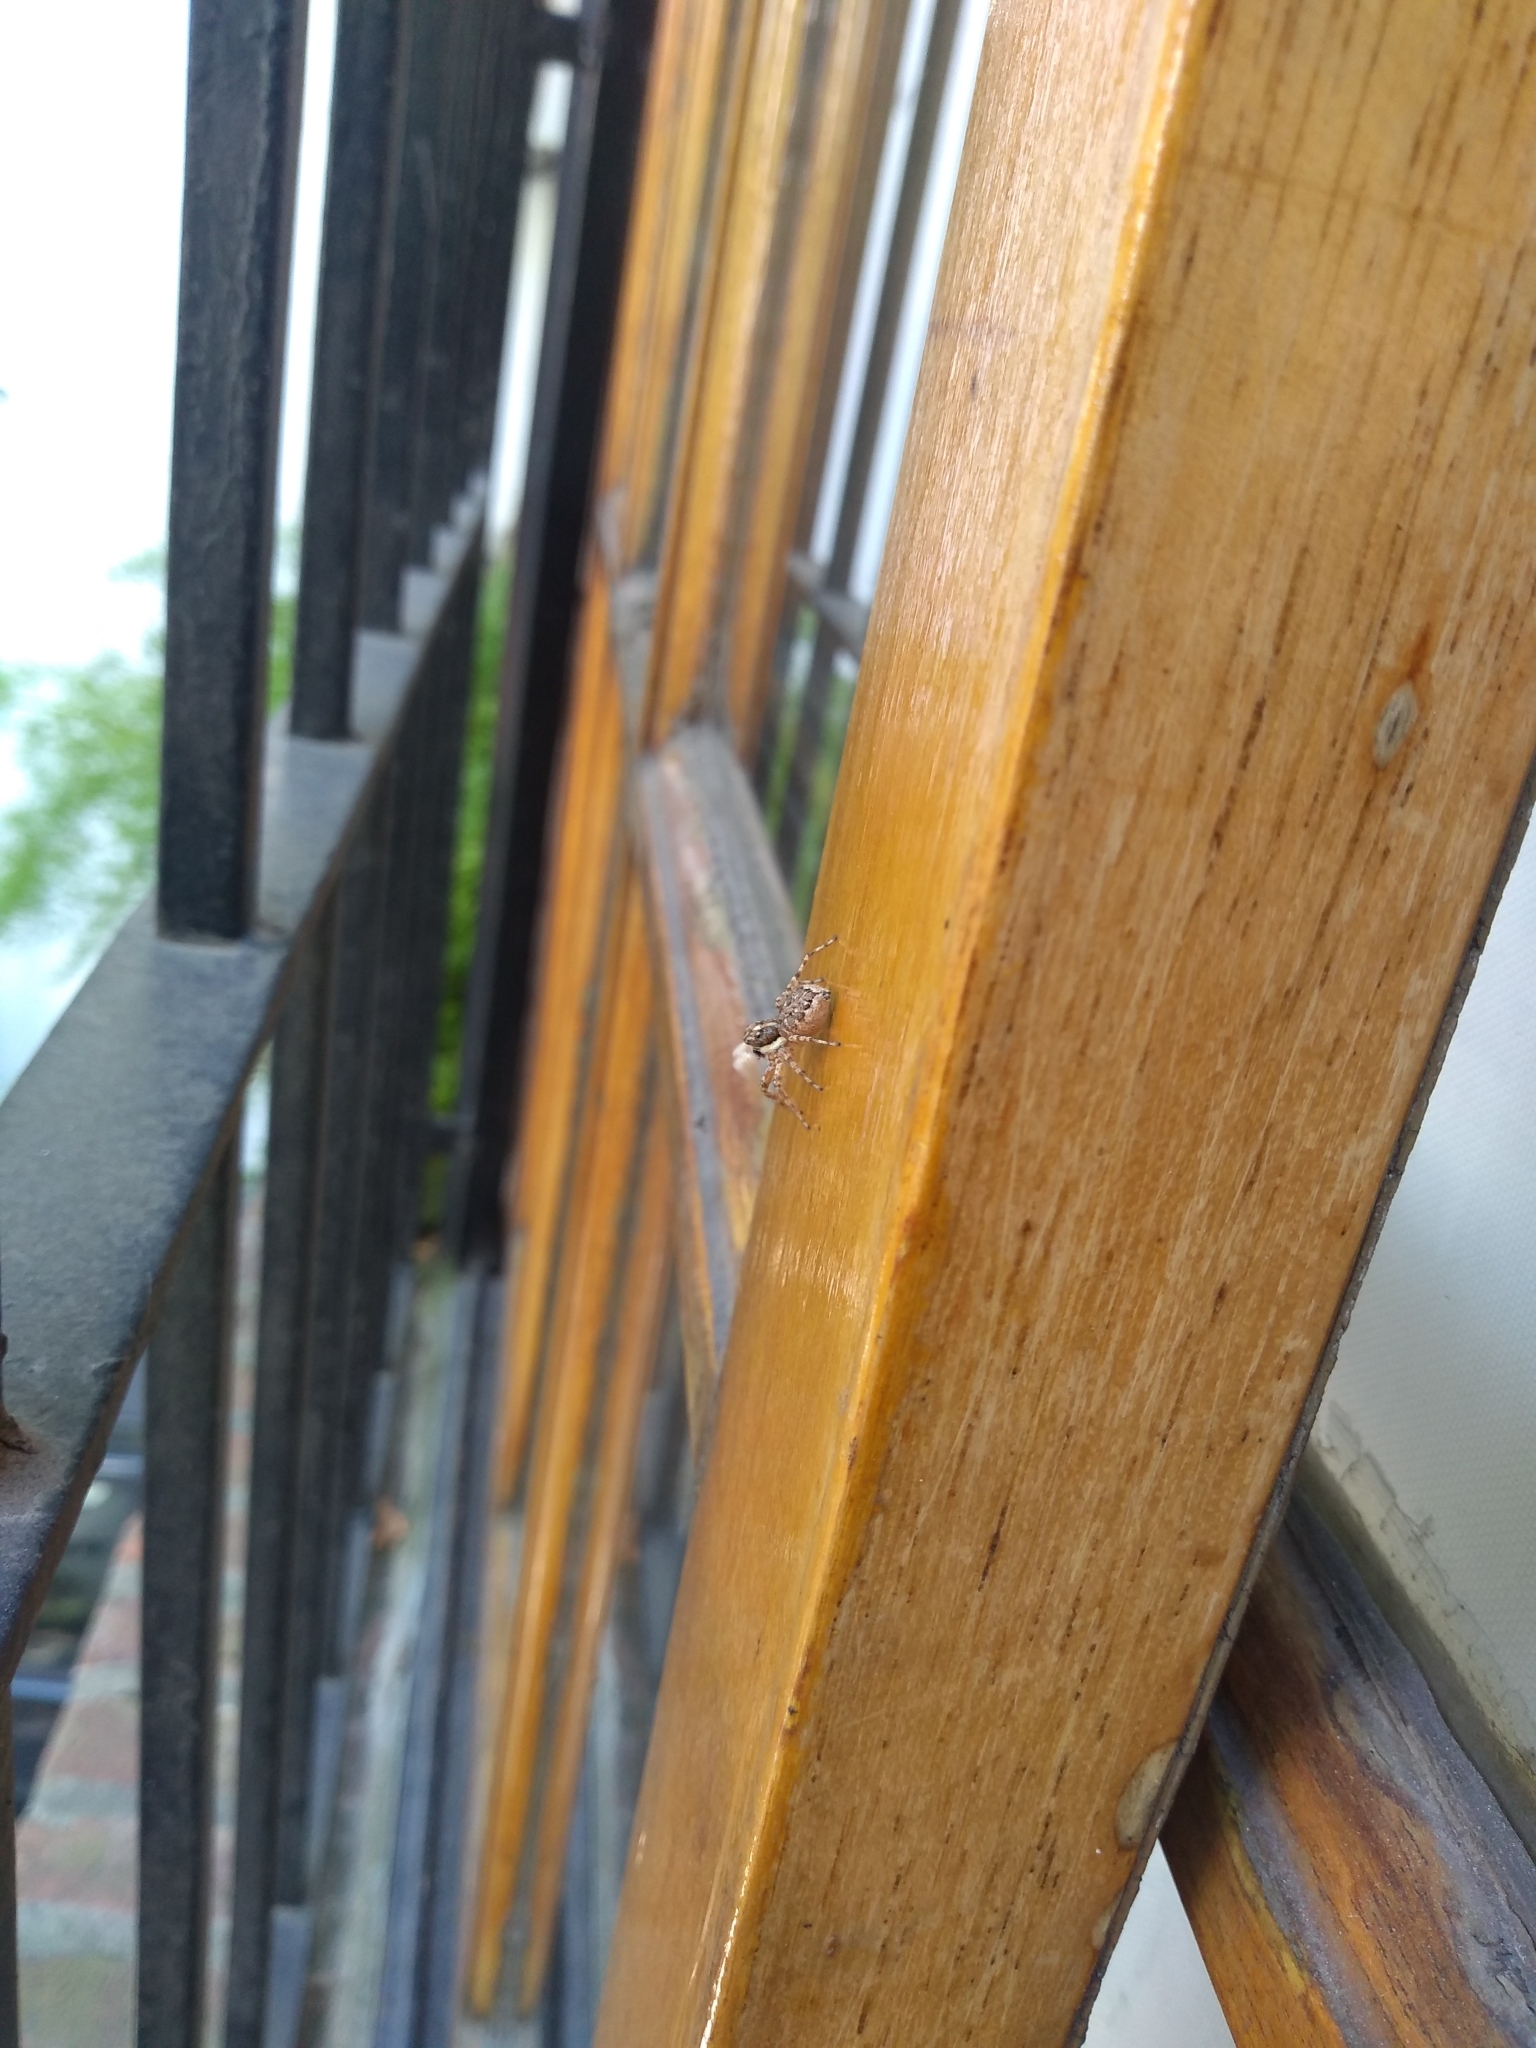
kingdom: Animalia
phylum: Arthropoda
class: Arachnida
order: Araneae
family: Salticidae
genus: Menemerus
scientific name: Menemerus semilimbatus
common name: Jumping spider
